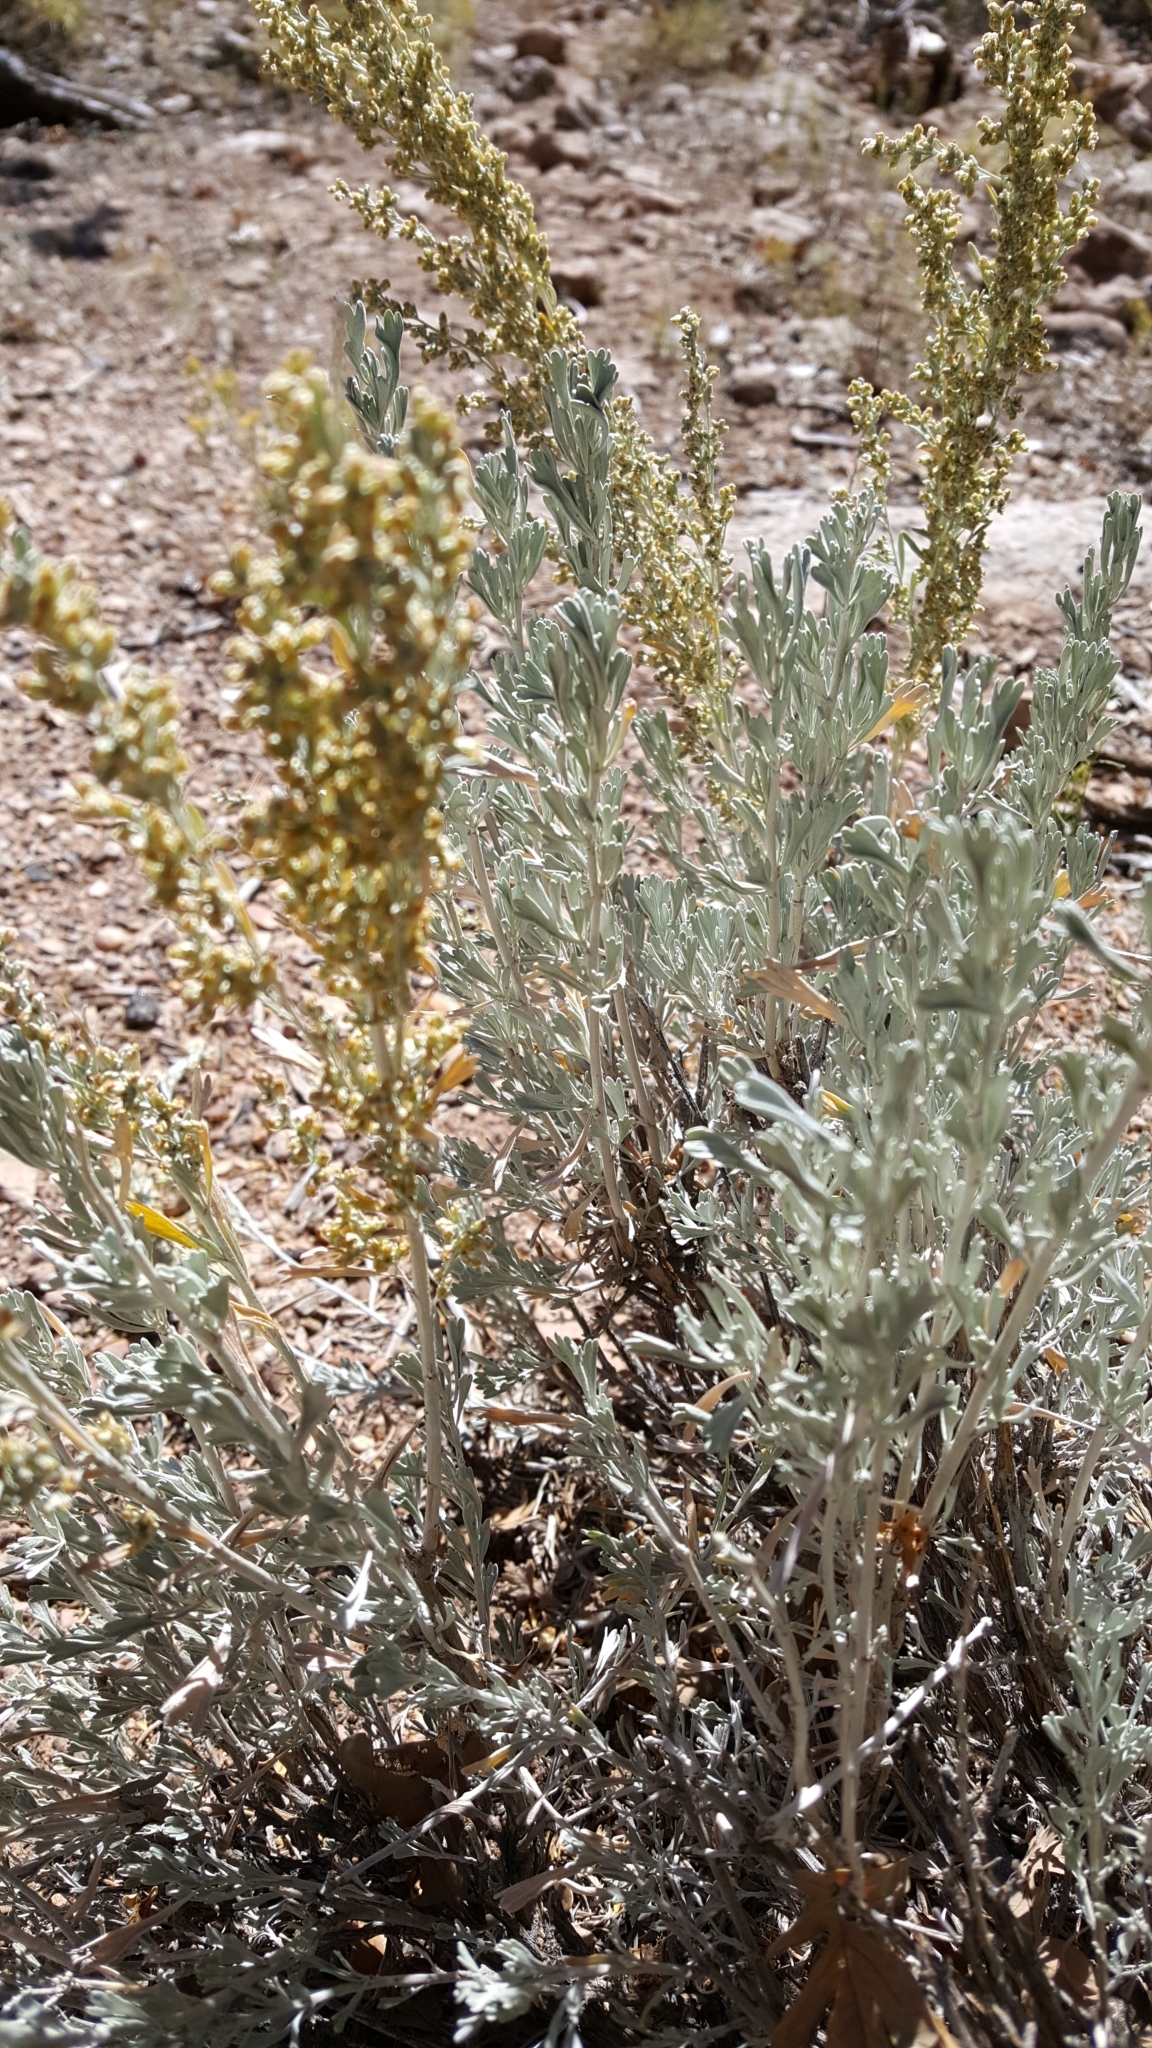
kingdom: Plantae
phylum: Tracheophyta
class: Magnoliopsida
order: Asterales
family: Asteraceae
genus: Artemisia
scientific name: Artemisia tridentata
